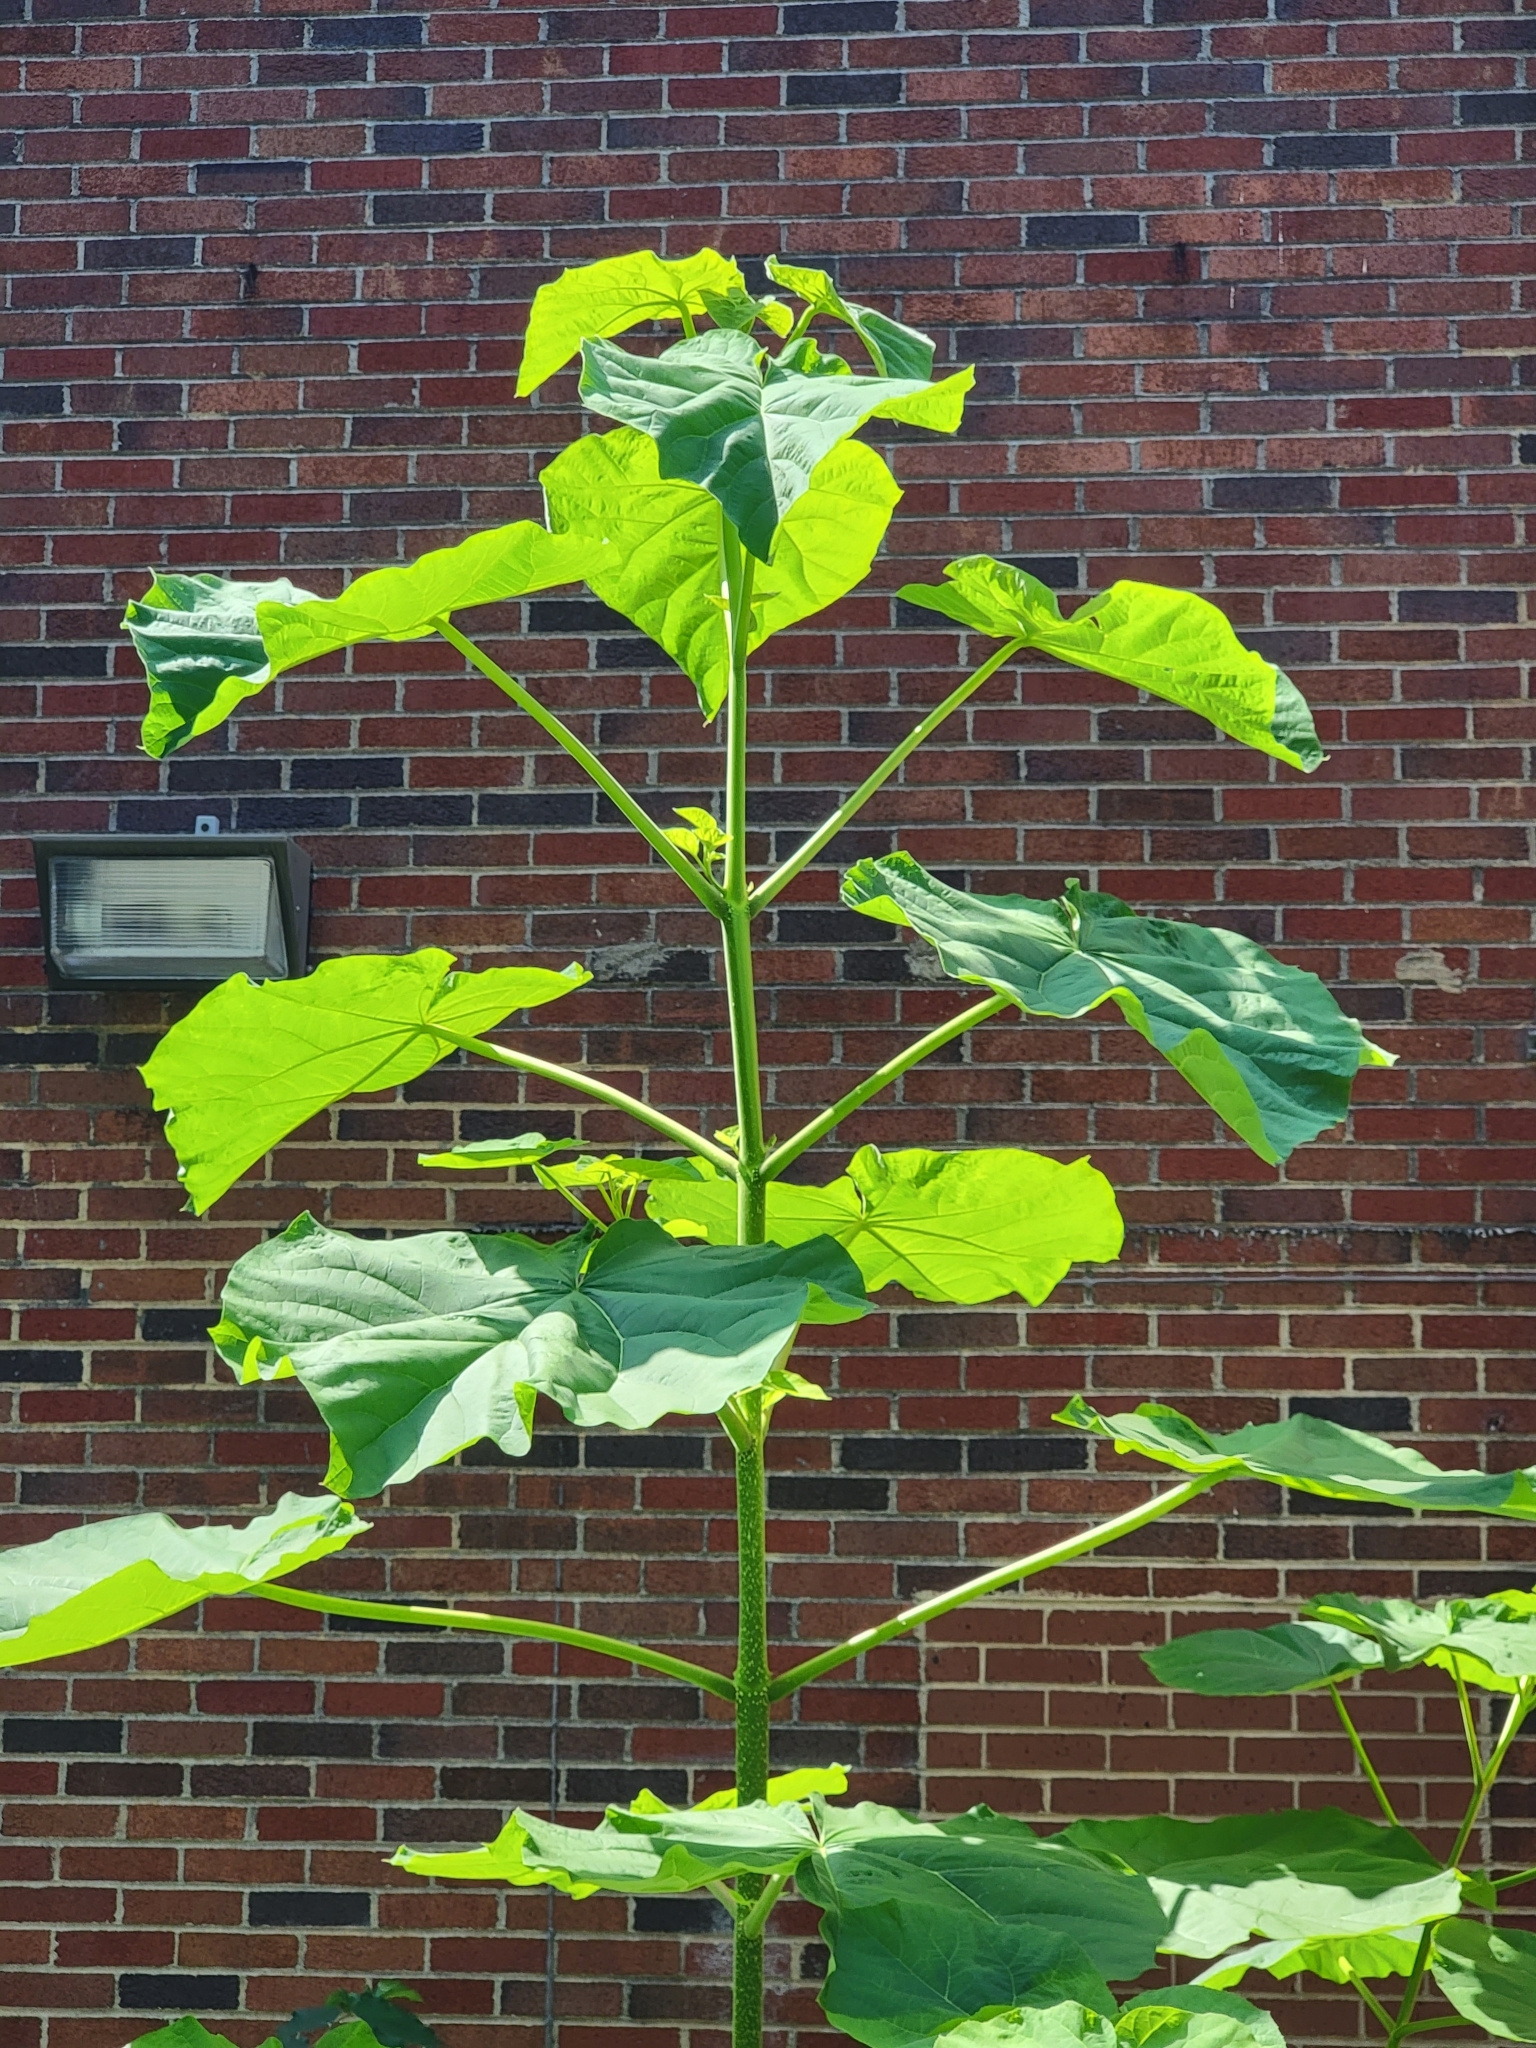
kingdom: Plantae
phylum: Tracheophyta
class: Magnoliopsida
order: Lamiales
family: Paulowniaceae
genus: Paulownia
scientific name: Paulownia tomentosa
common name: Foxglove-tree
